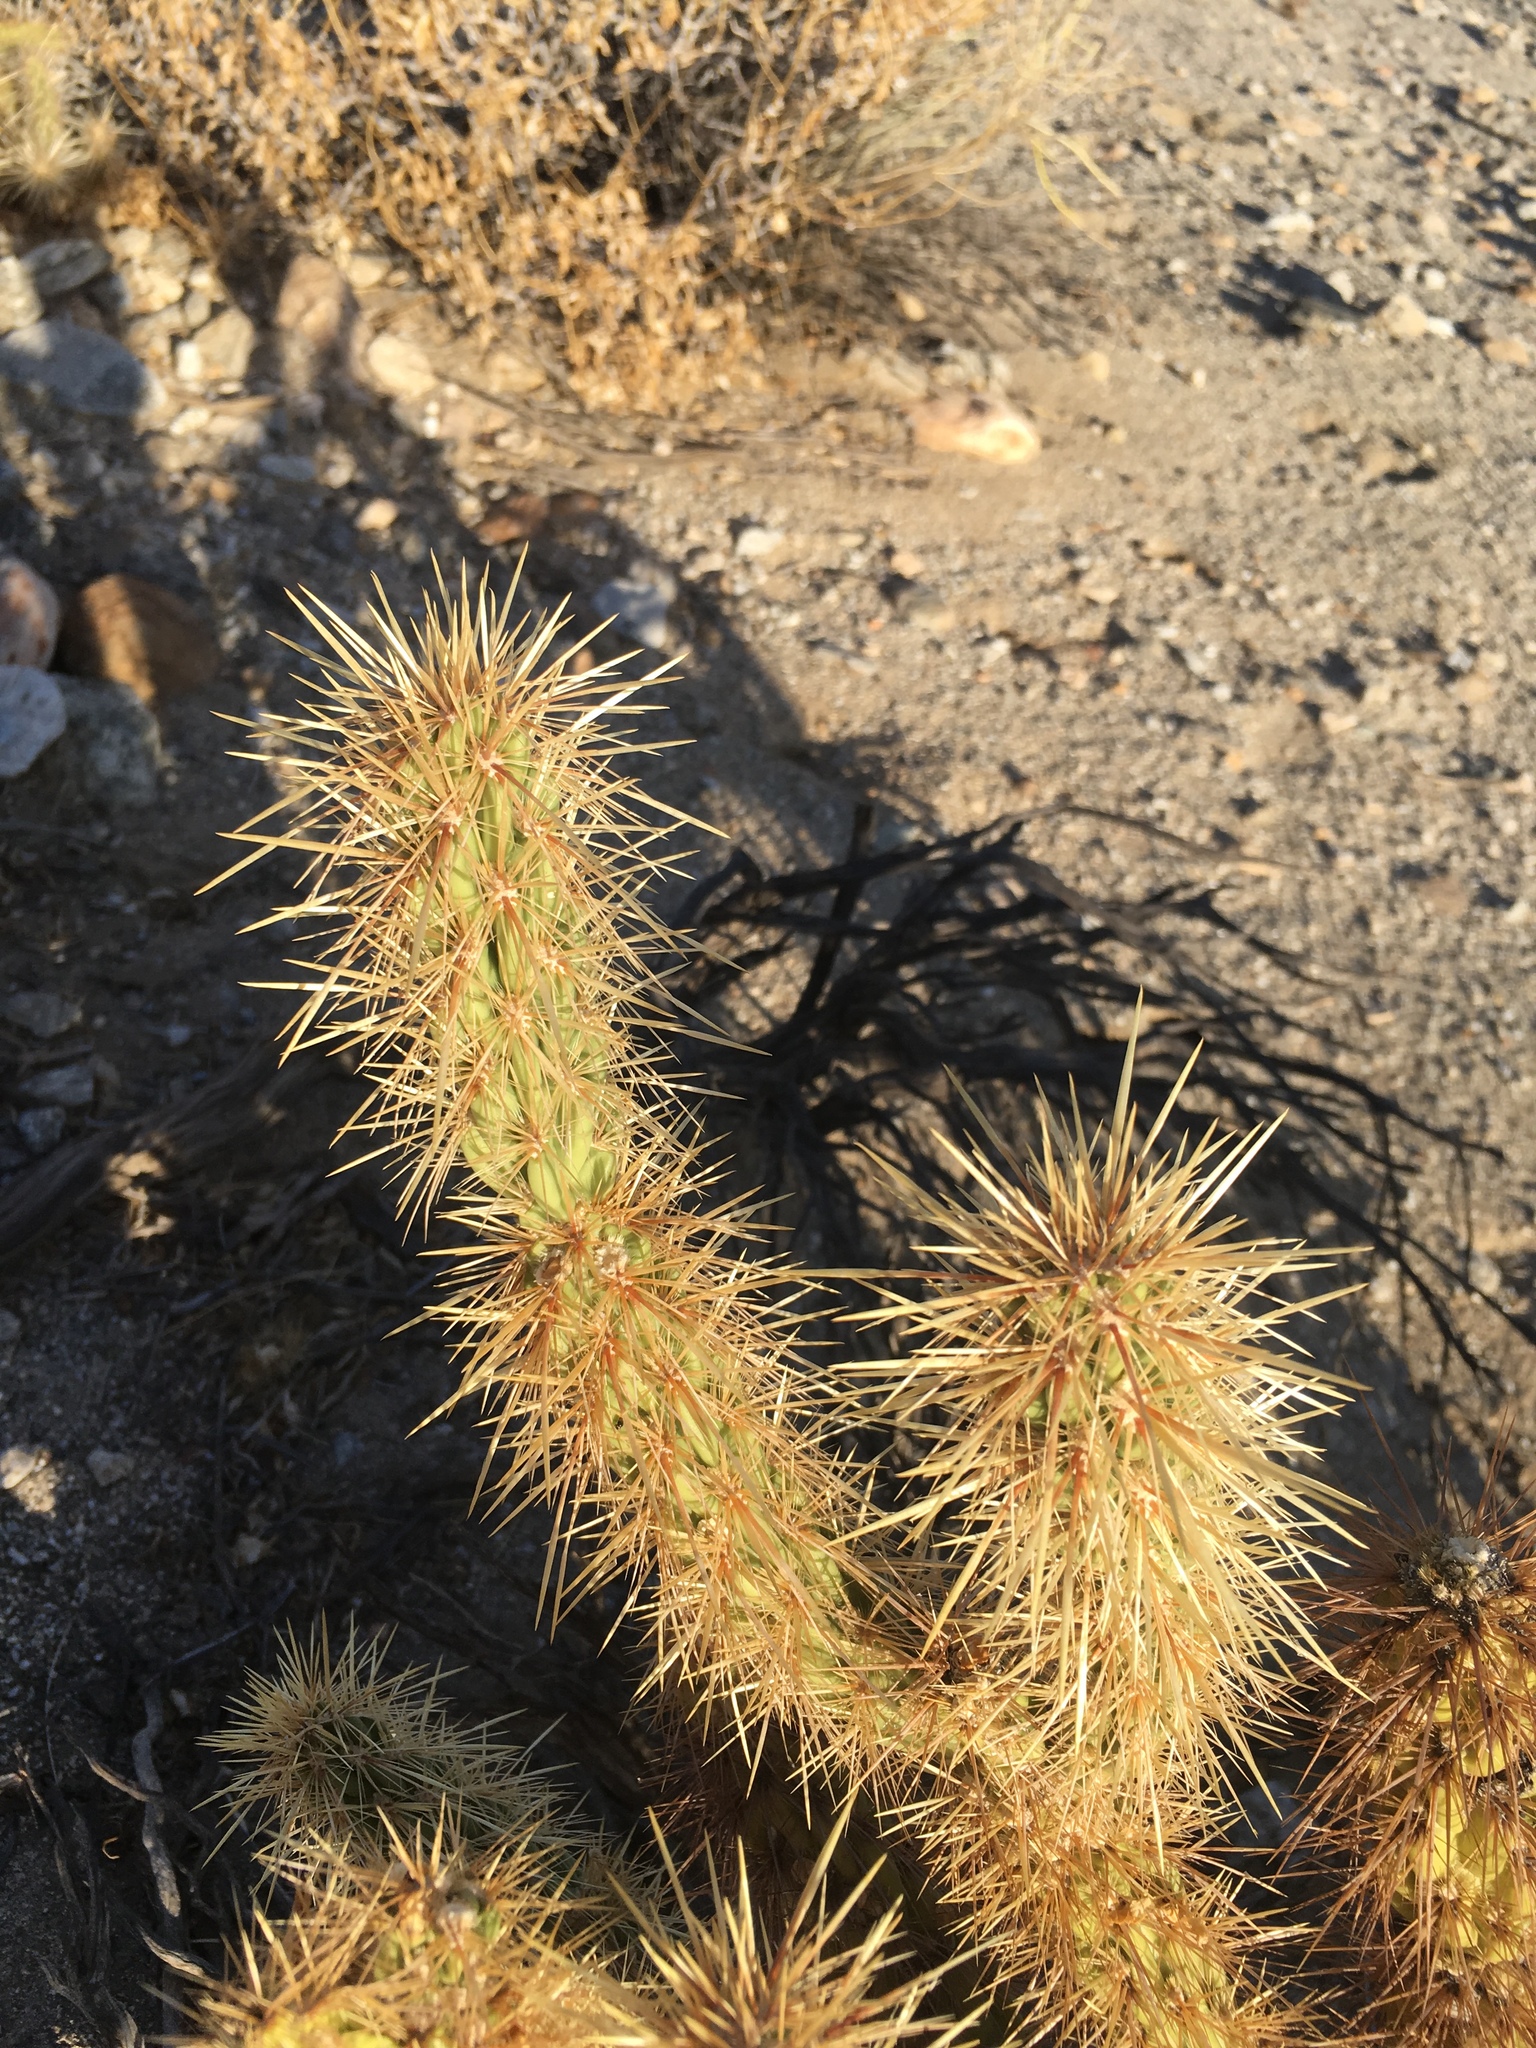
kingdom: Plantae
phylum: Tracheophyta
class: Magnoliopsida
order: Caryophyllales
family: Cactaceae
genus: Cylindropuntia
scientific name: Cylindropuntia ganderi
